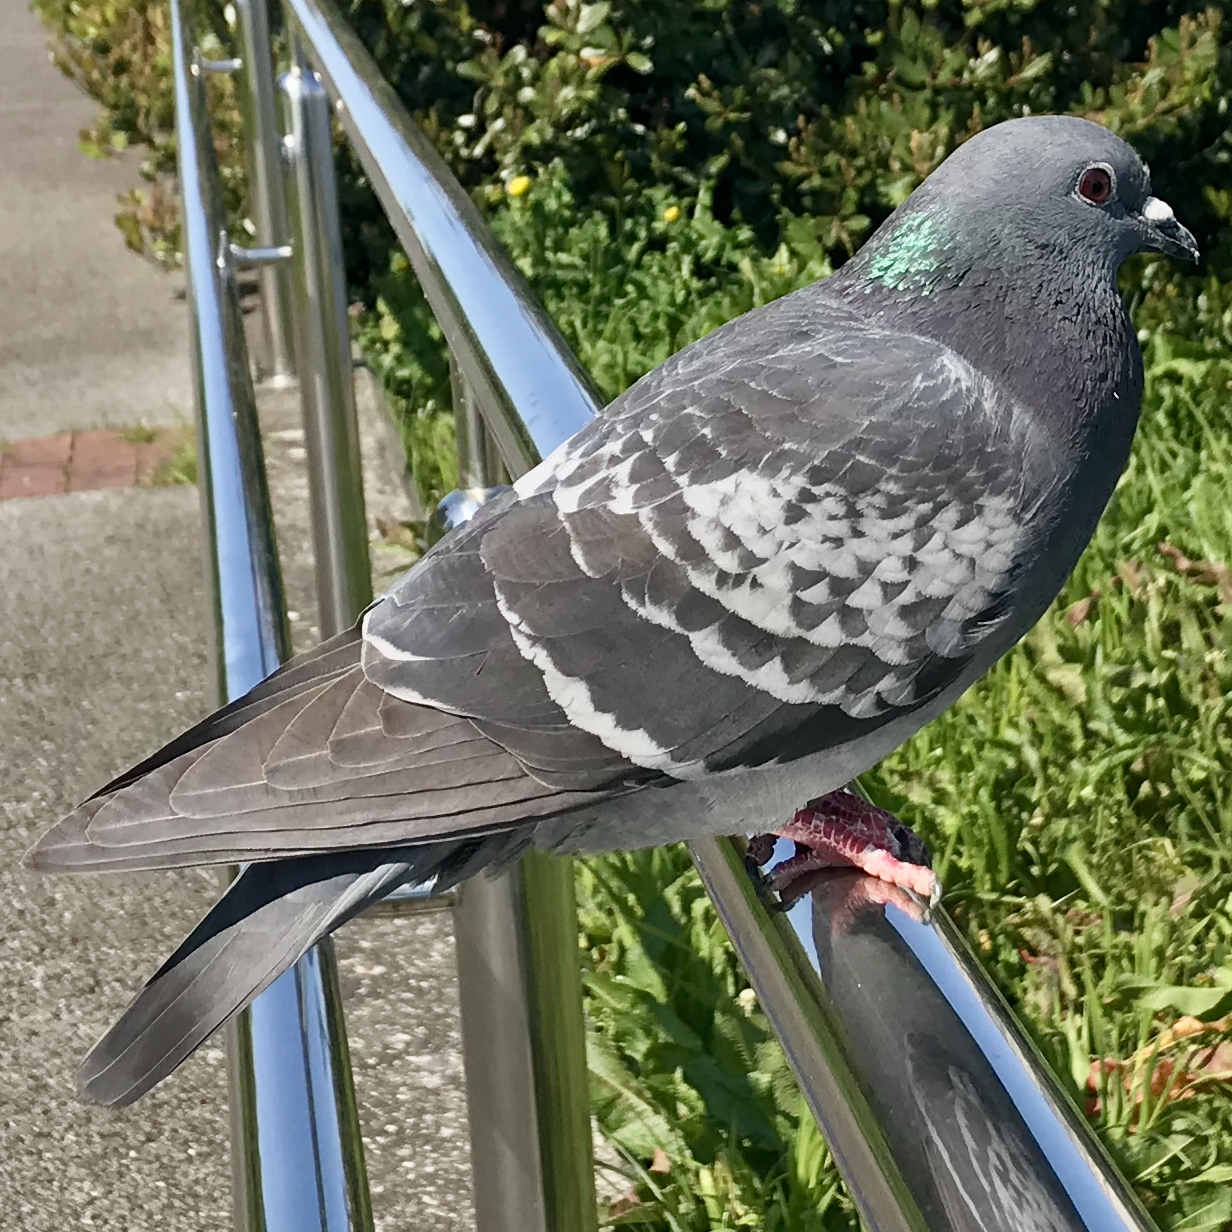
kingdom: Animalia
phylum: Chordata
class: Aves
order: Columbiformes
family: Columbidae
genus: Columba
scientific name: Columba livia
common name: Rock pigeon
